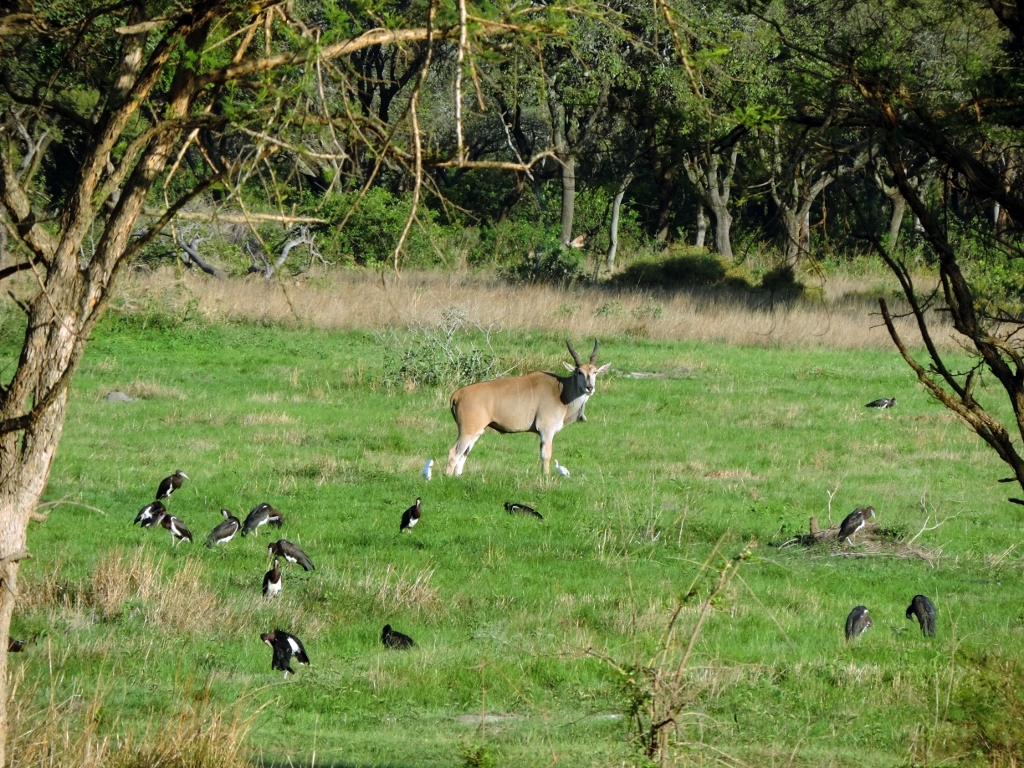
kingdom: Animalia
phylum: Chordata
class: Aves
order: Ciconiiformes
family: Ciconiidae
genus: Ciconia
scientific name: Ciconia abdimii
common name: Abdim's stork
